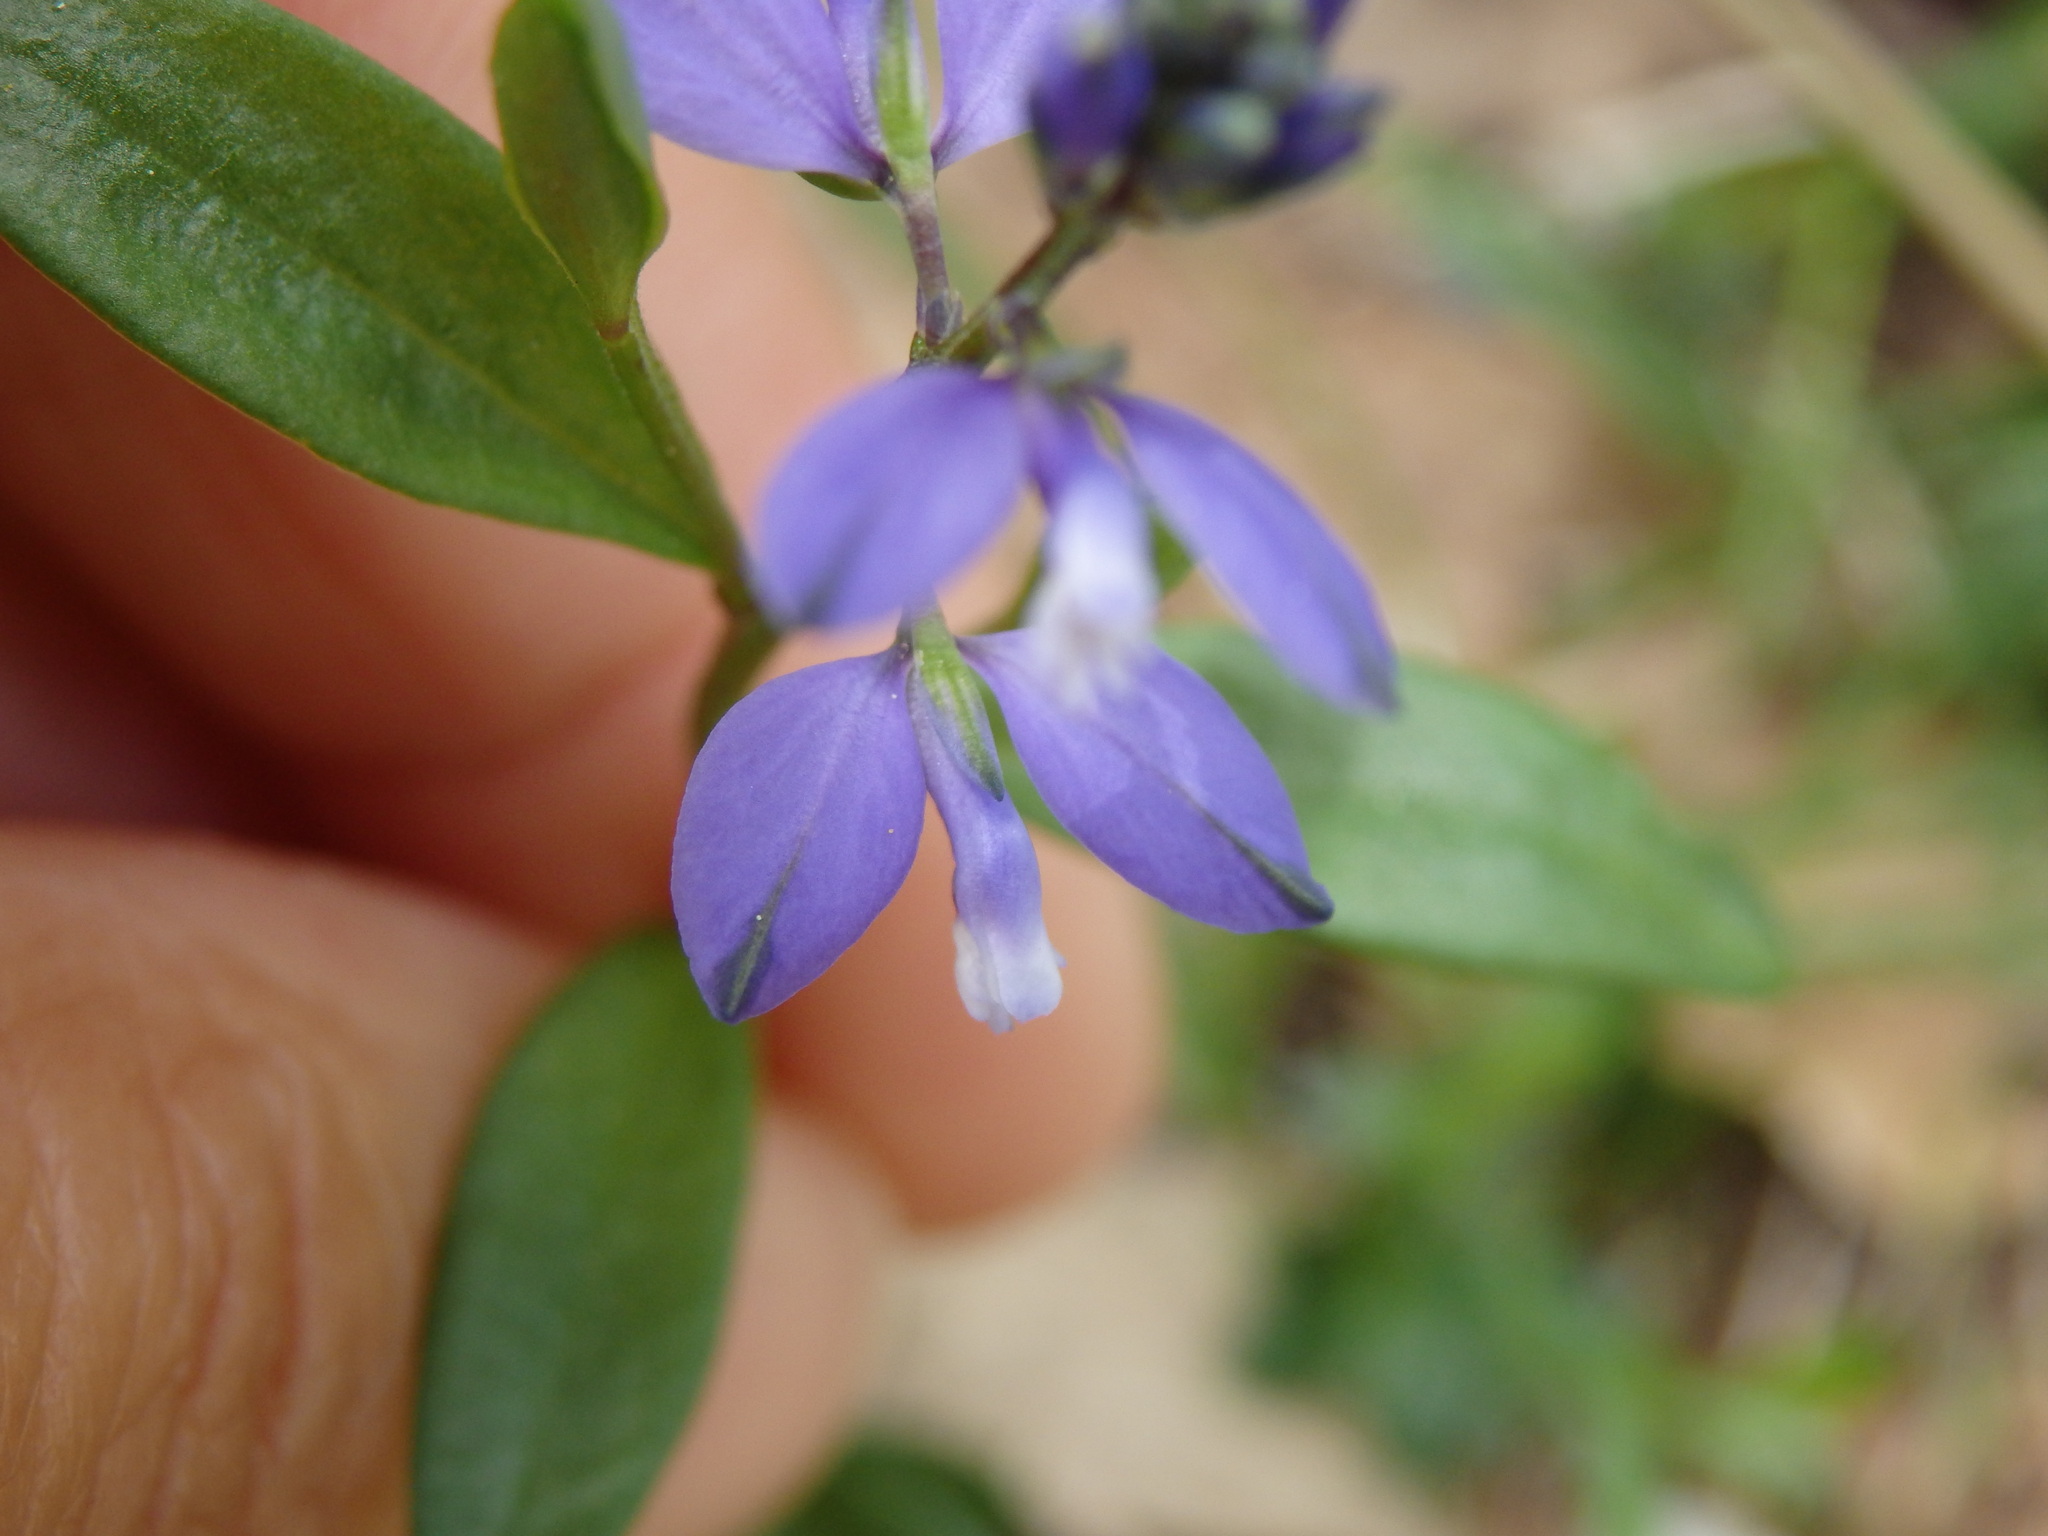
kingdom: Plantae
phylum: Tracheophyta
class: Magnoliopsida
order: Fabales
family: Polygalaceae
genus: Polygala
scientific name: Polygala vulgaris
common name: Common milkwort
